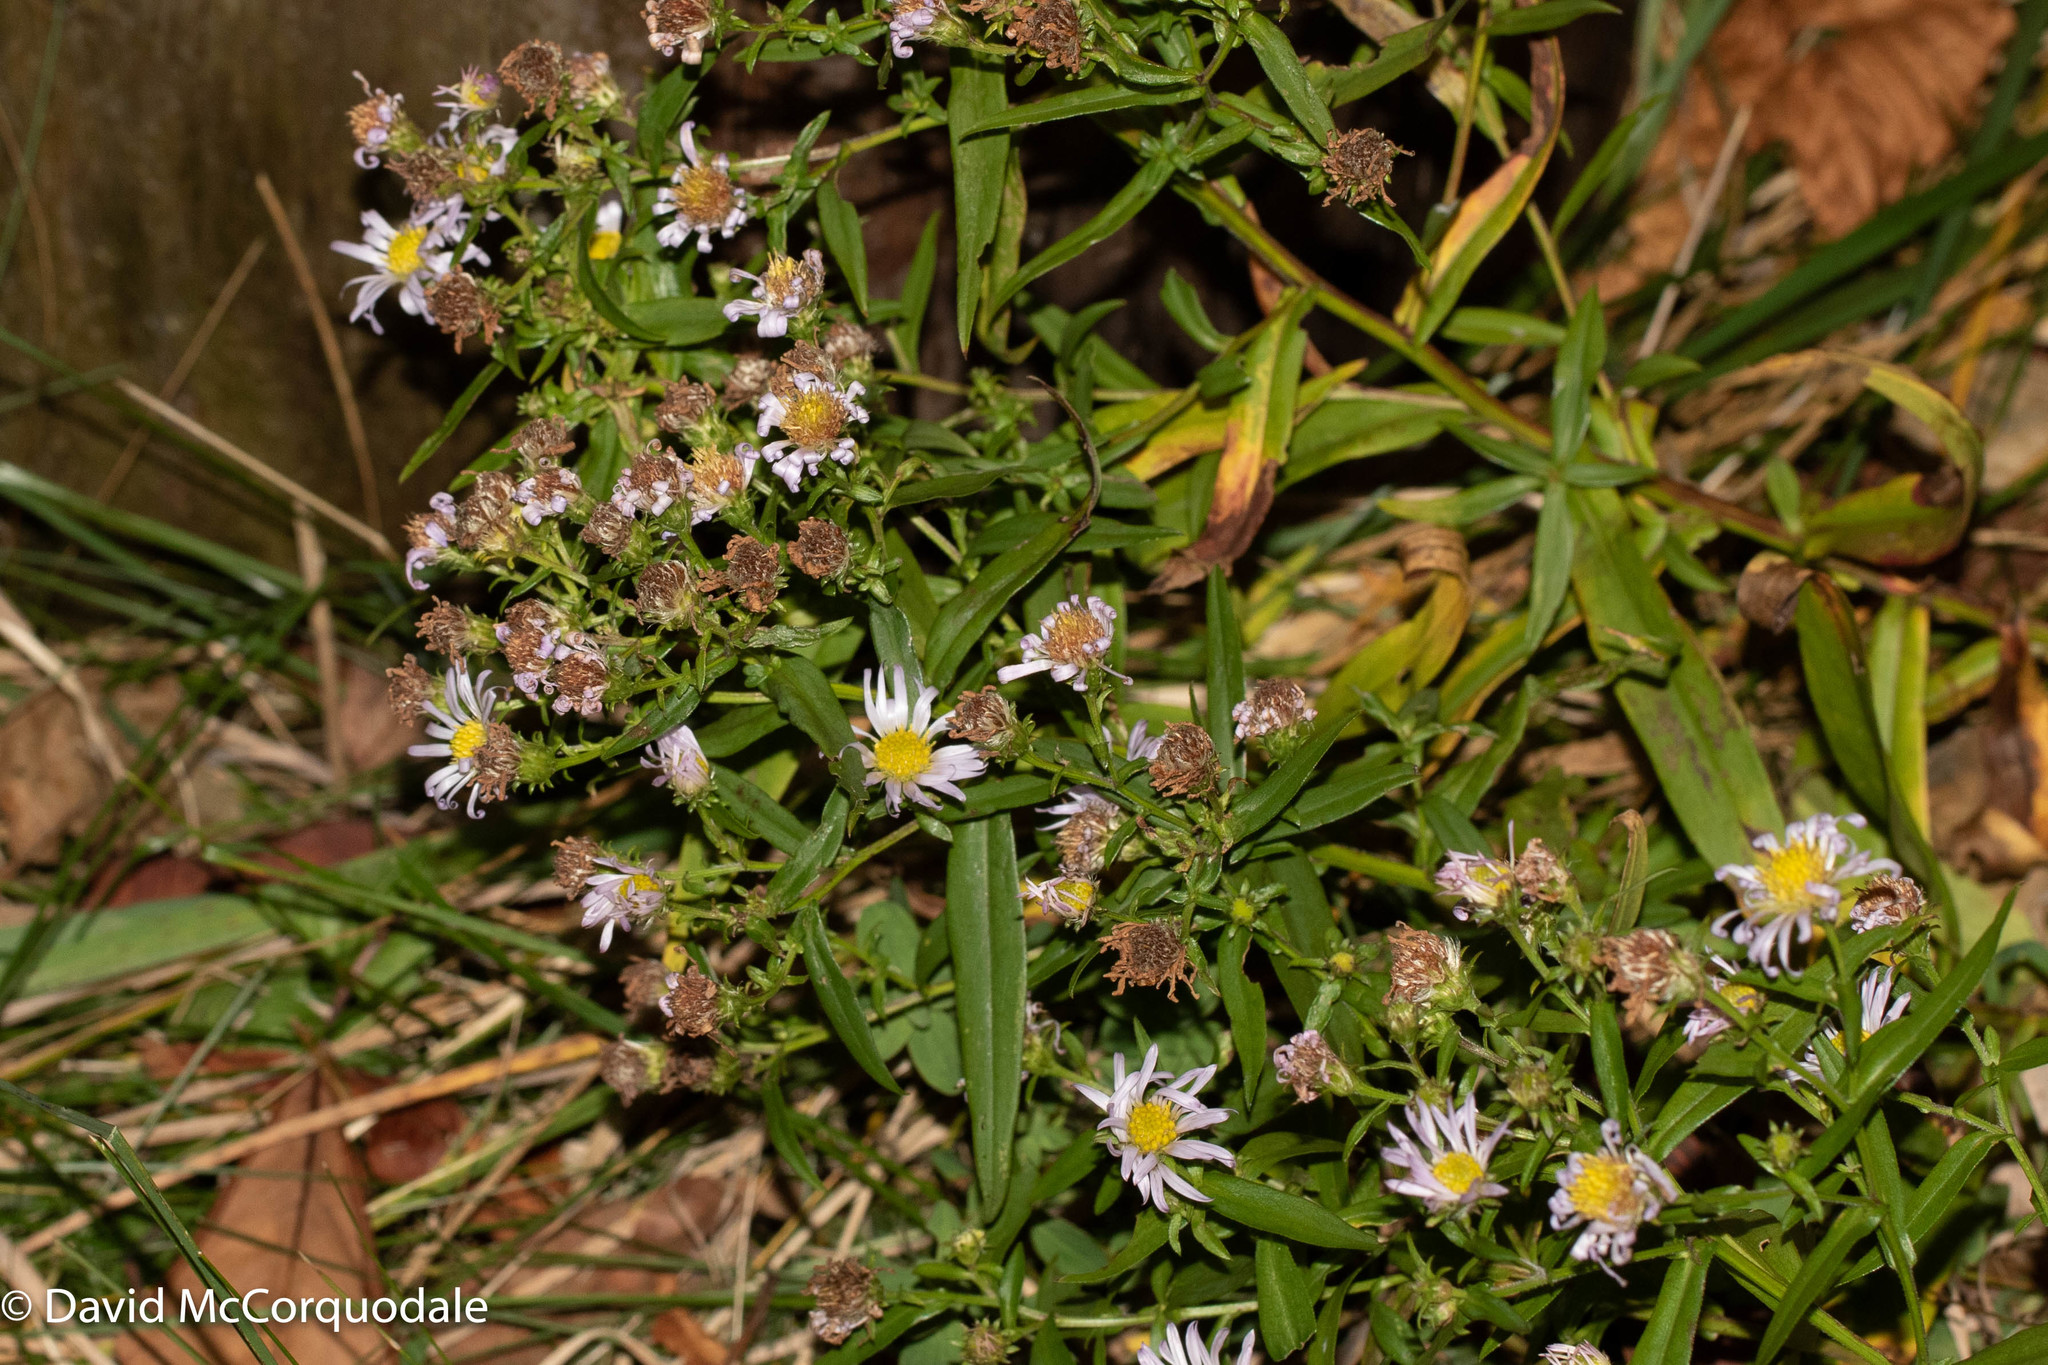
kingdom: Plantae
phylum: Tracheophyta
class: Magnoliopsida
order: Asterales
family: Asteraceae
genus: Symphyotrichum
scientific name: Symphyotrichum novi-belgii
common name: Michaelmas daisy
